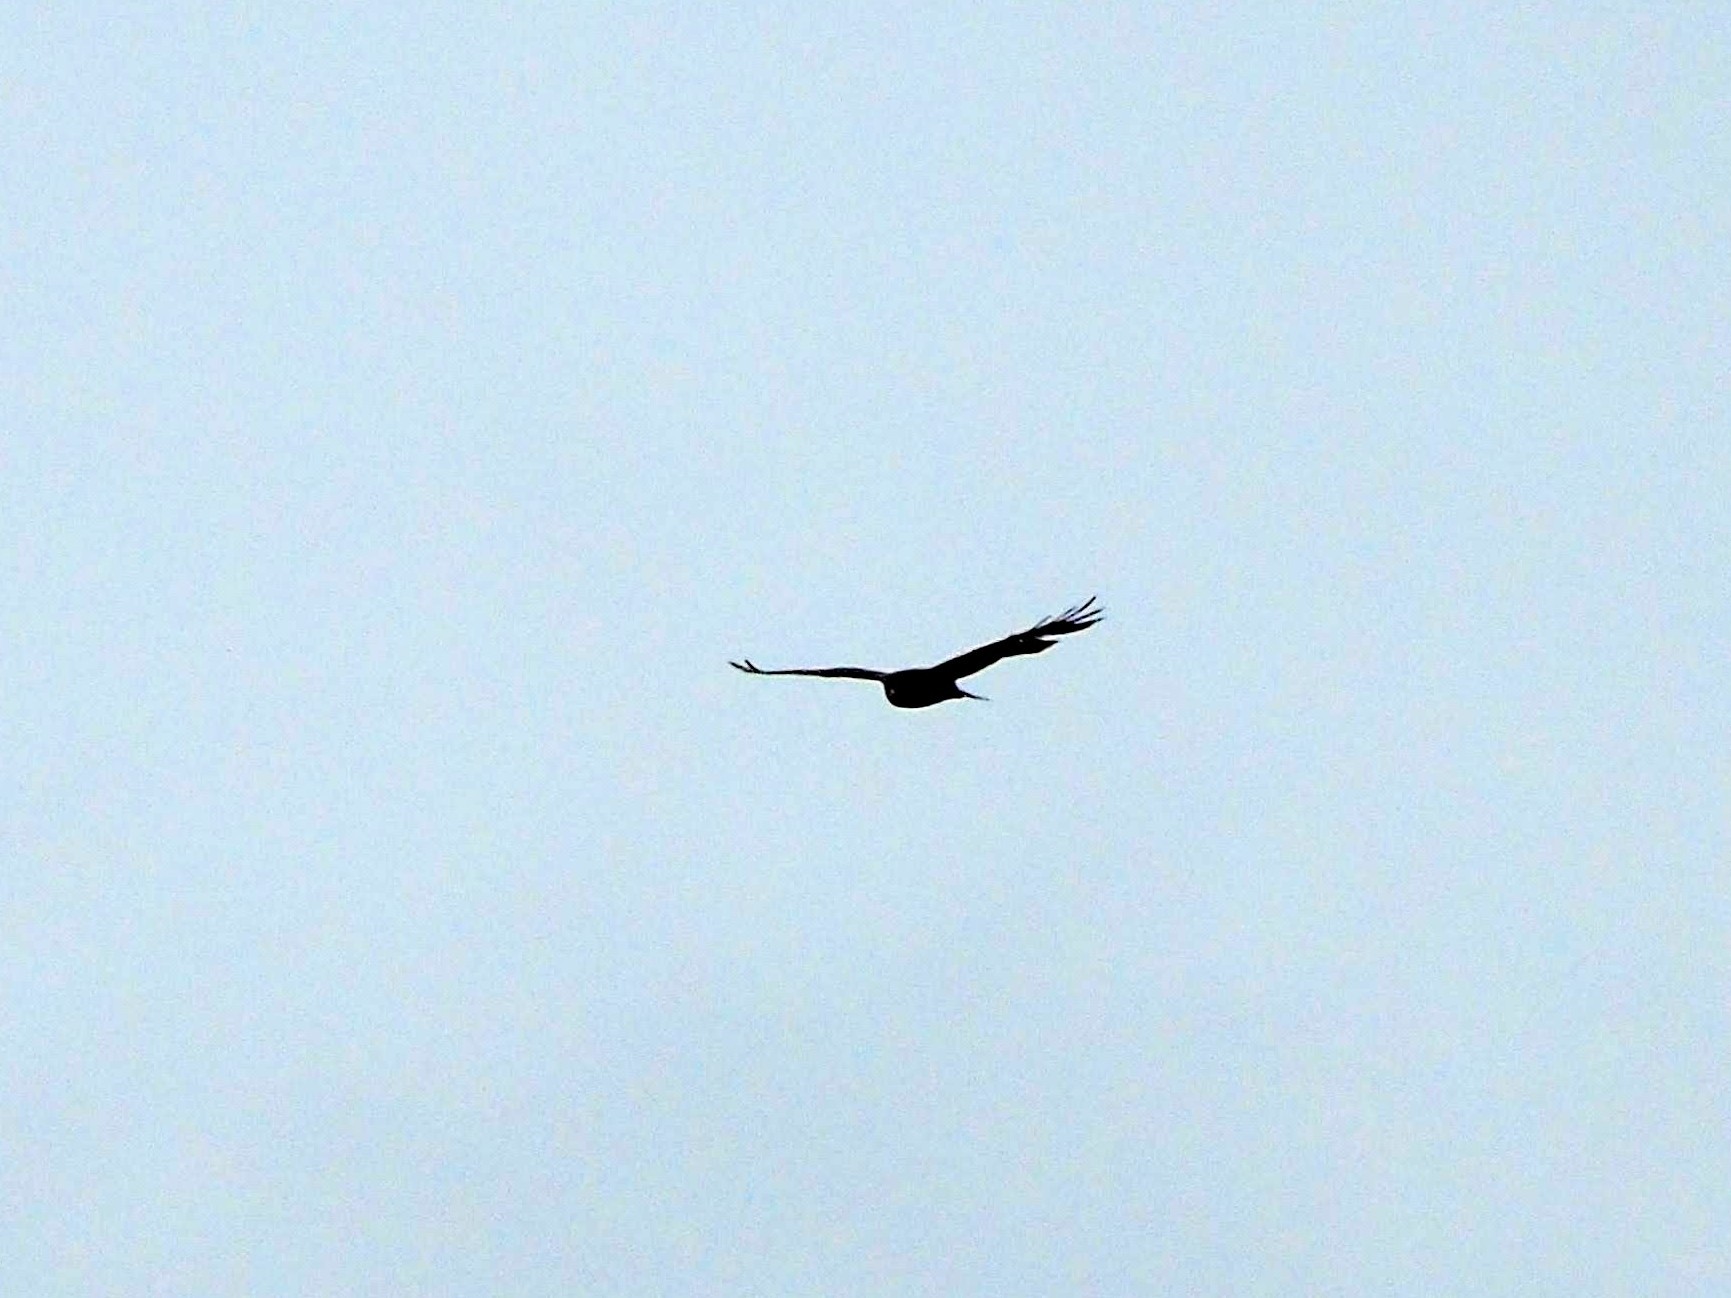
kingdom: Animalia
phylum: Chordata
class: Aves
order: Accipitriformes
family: Accipitridae
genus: Buteo
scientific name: Buteo buteo
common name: Common buzzard
